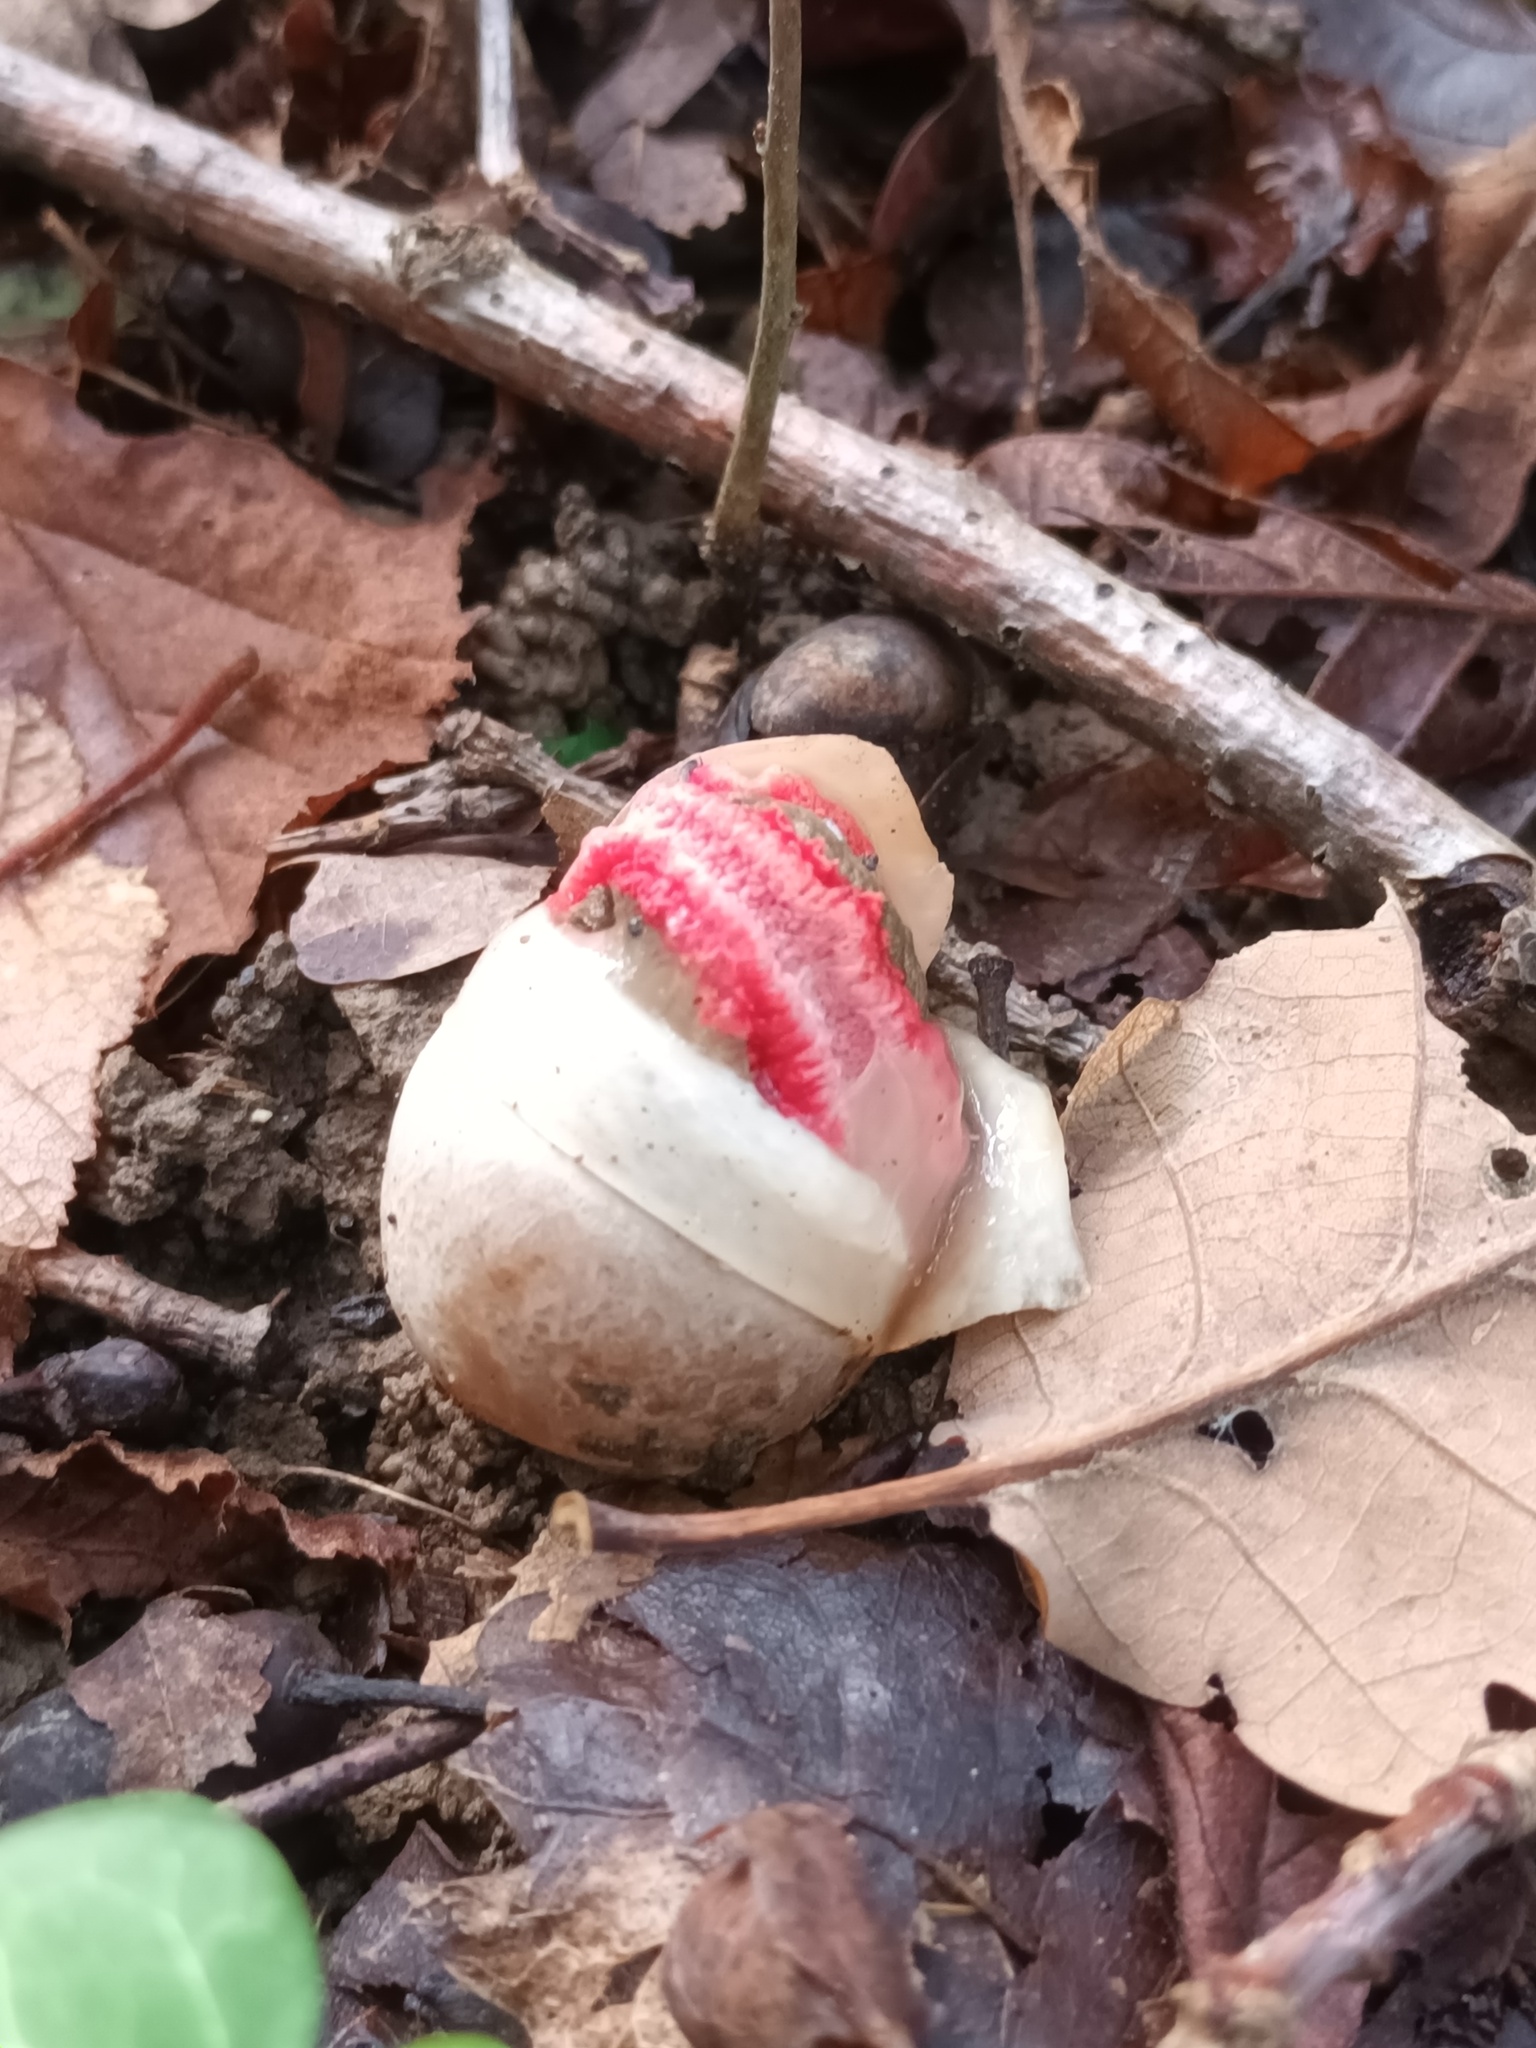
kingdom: Fungi
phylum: Basidiomycota
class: Agaricomycetes
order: Phallales
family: Phallaceae
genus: Clathrus
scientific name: Clathrus archeri
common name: Devil's fingers
